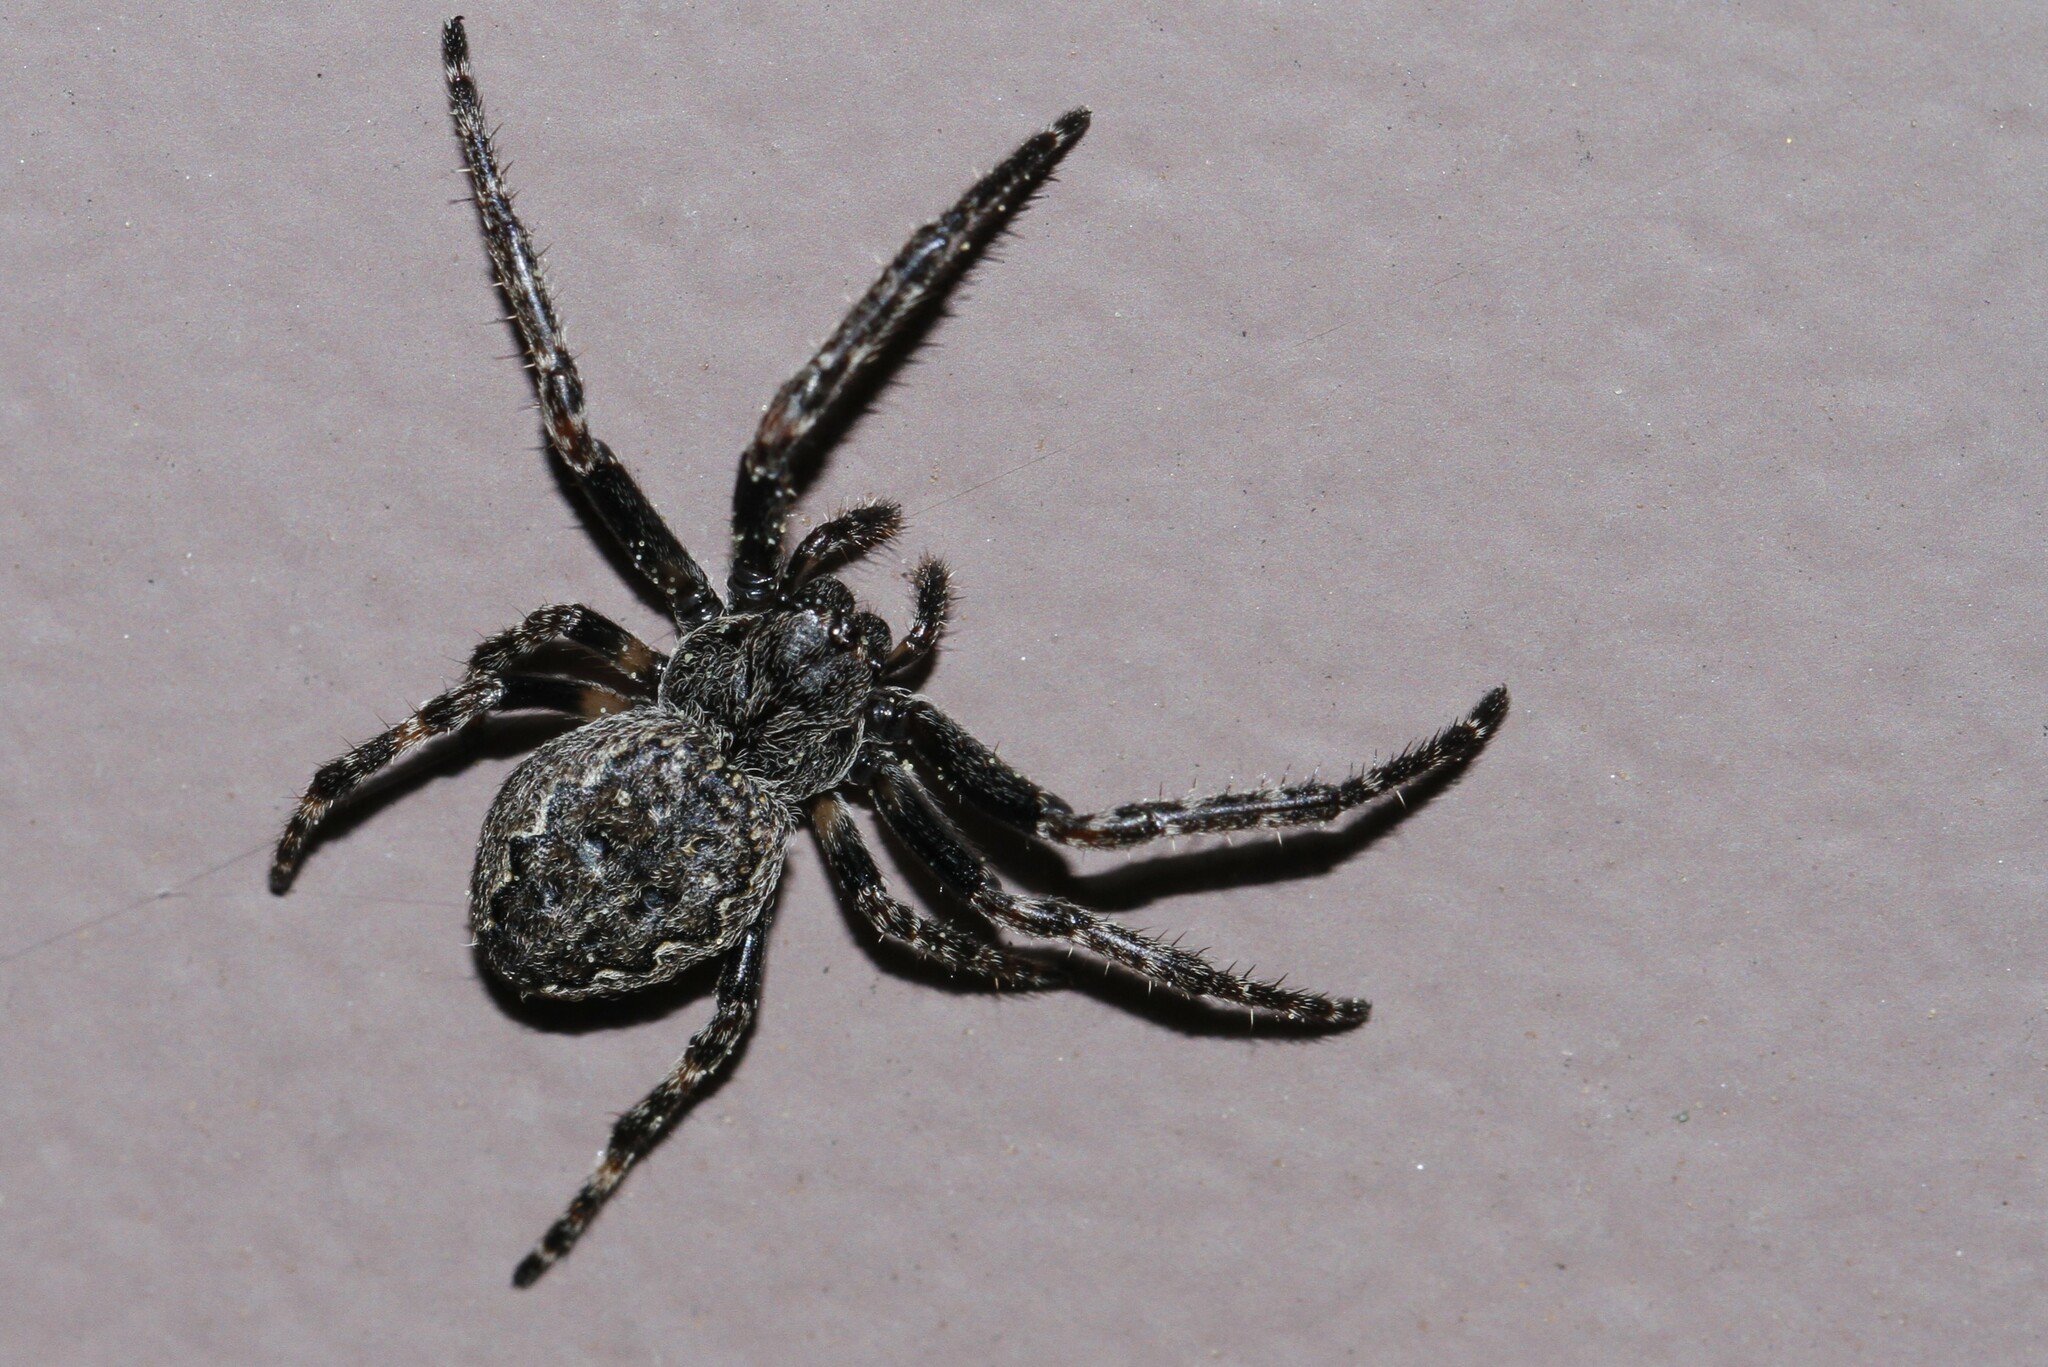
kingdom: Animalia
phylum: Arthropoda
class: Arachnida
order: Araneae
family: Araneidae
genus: Nuctenea
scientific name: Nuctenea umbratica
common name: Toad spider
